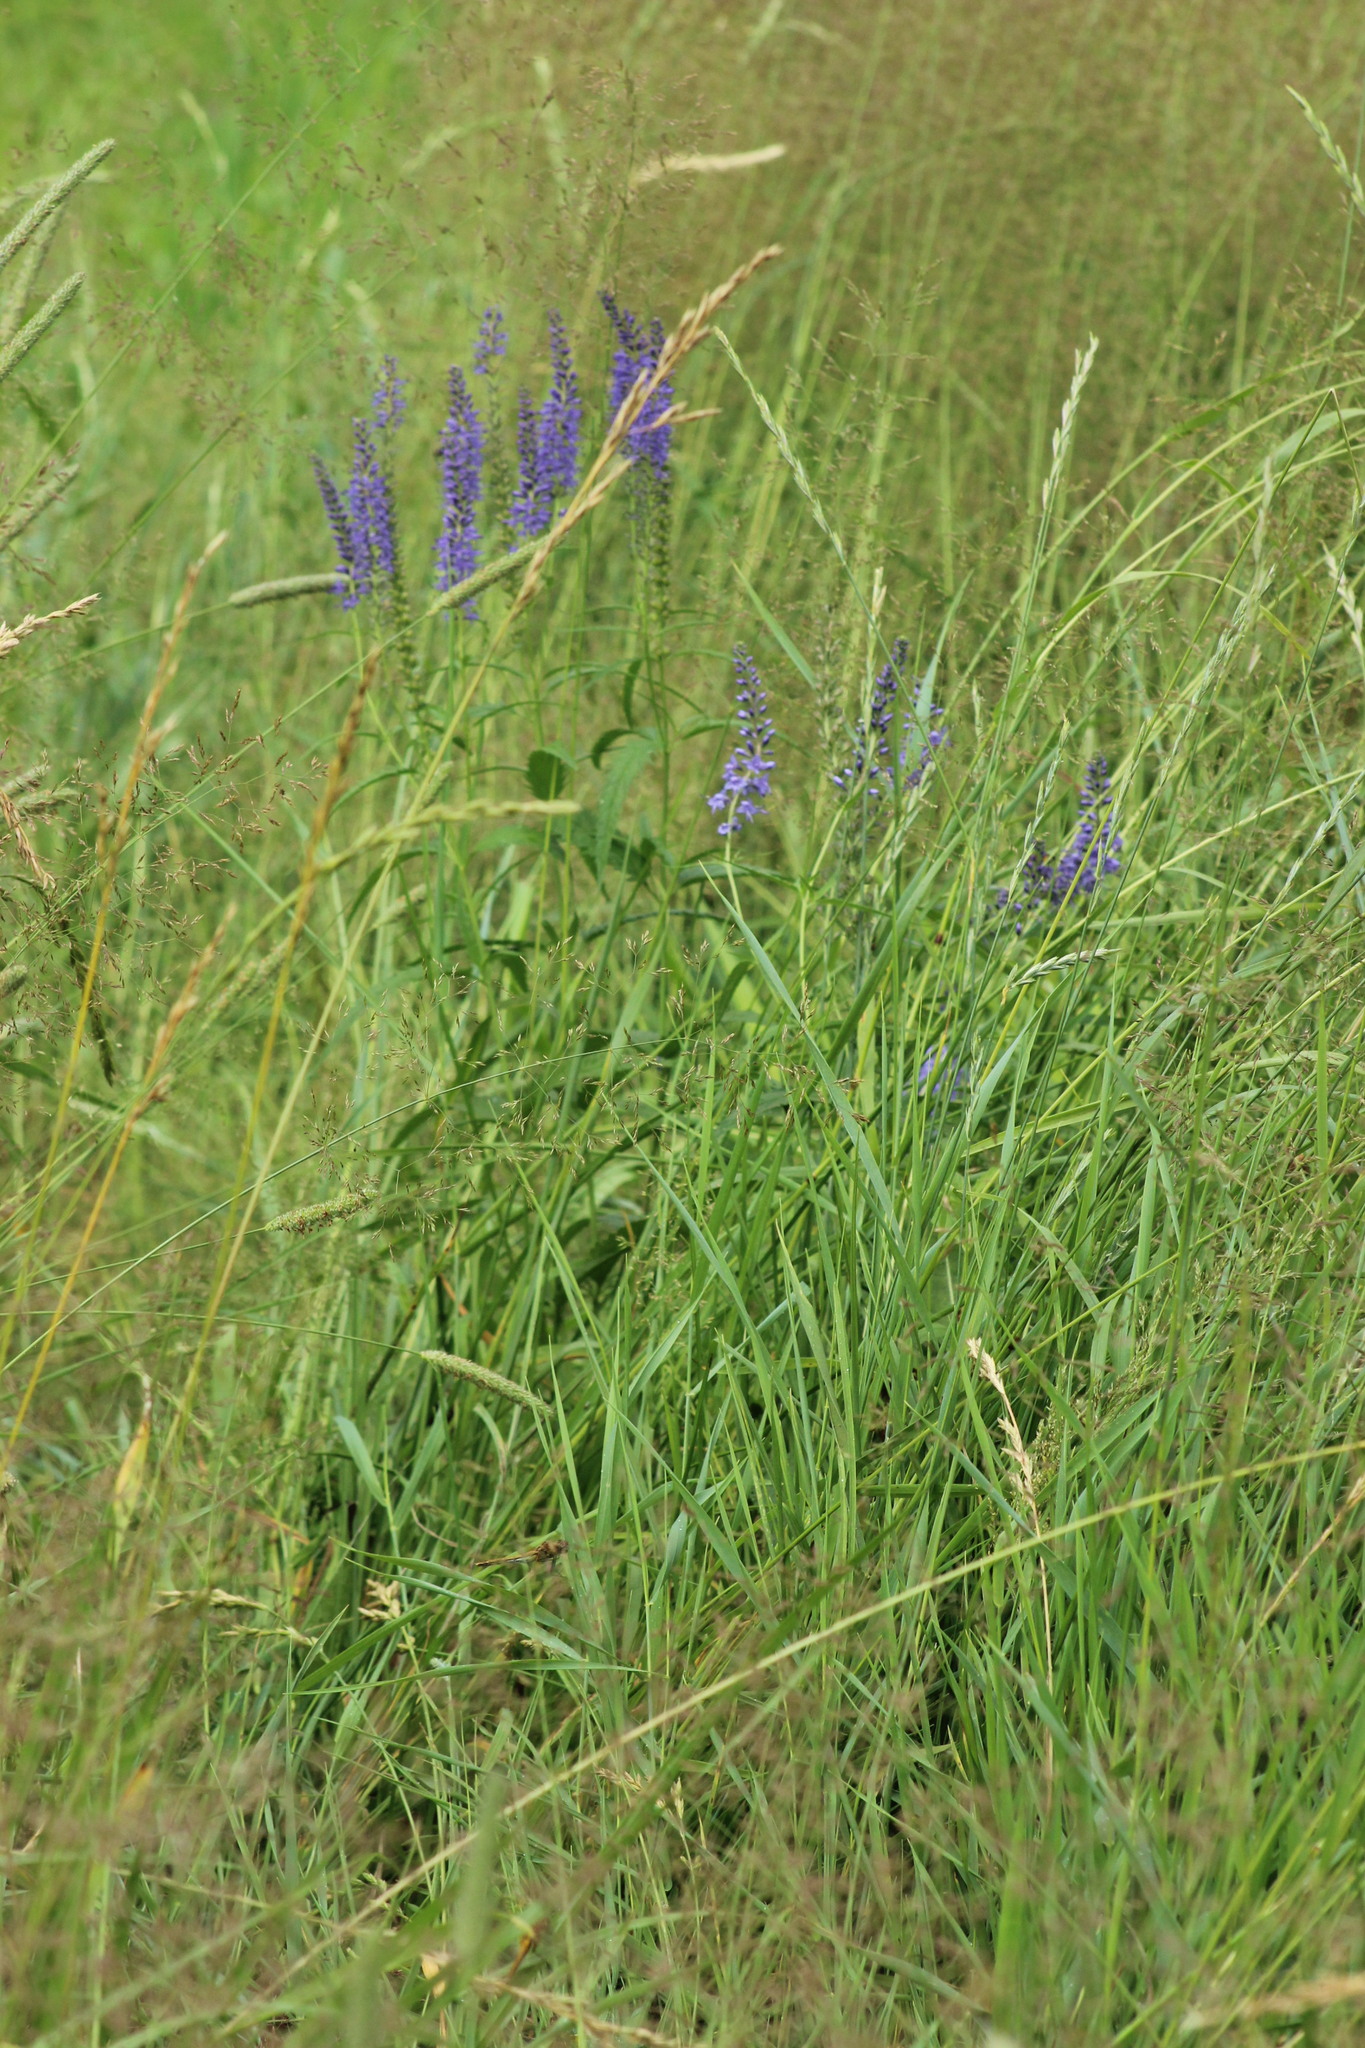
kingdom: Plantae
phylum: Tracheophyta
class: Magnoliopsida
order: Lamiales
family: Plantaginaceae
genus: Veronica
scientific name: Veronica longifolia
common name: Garden speedwell
